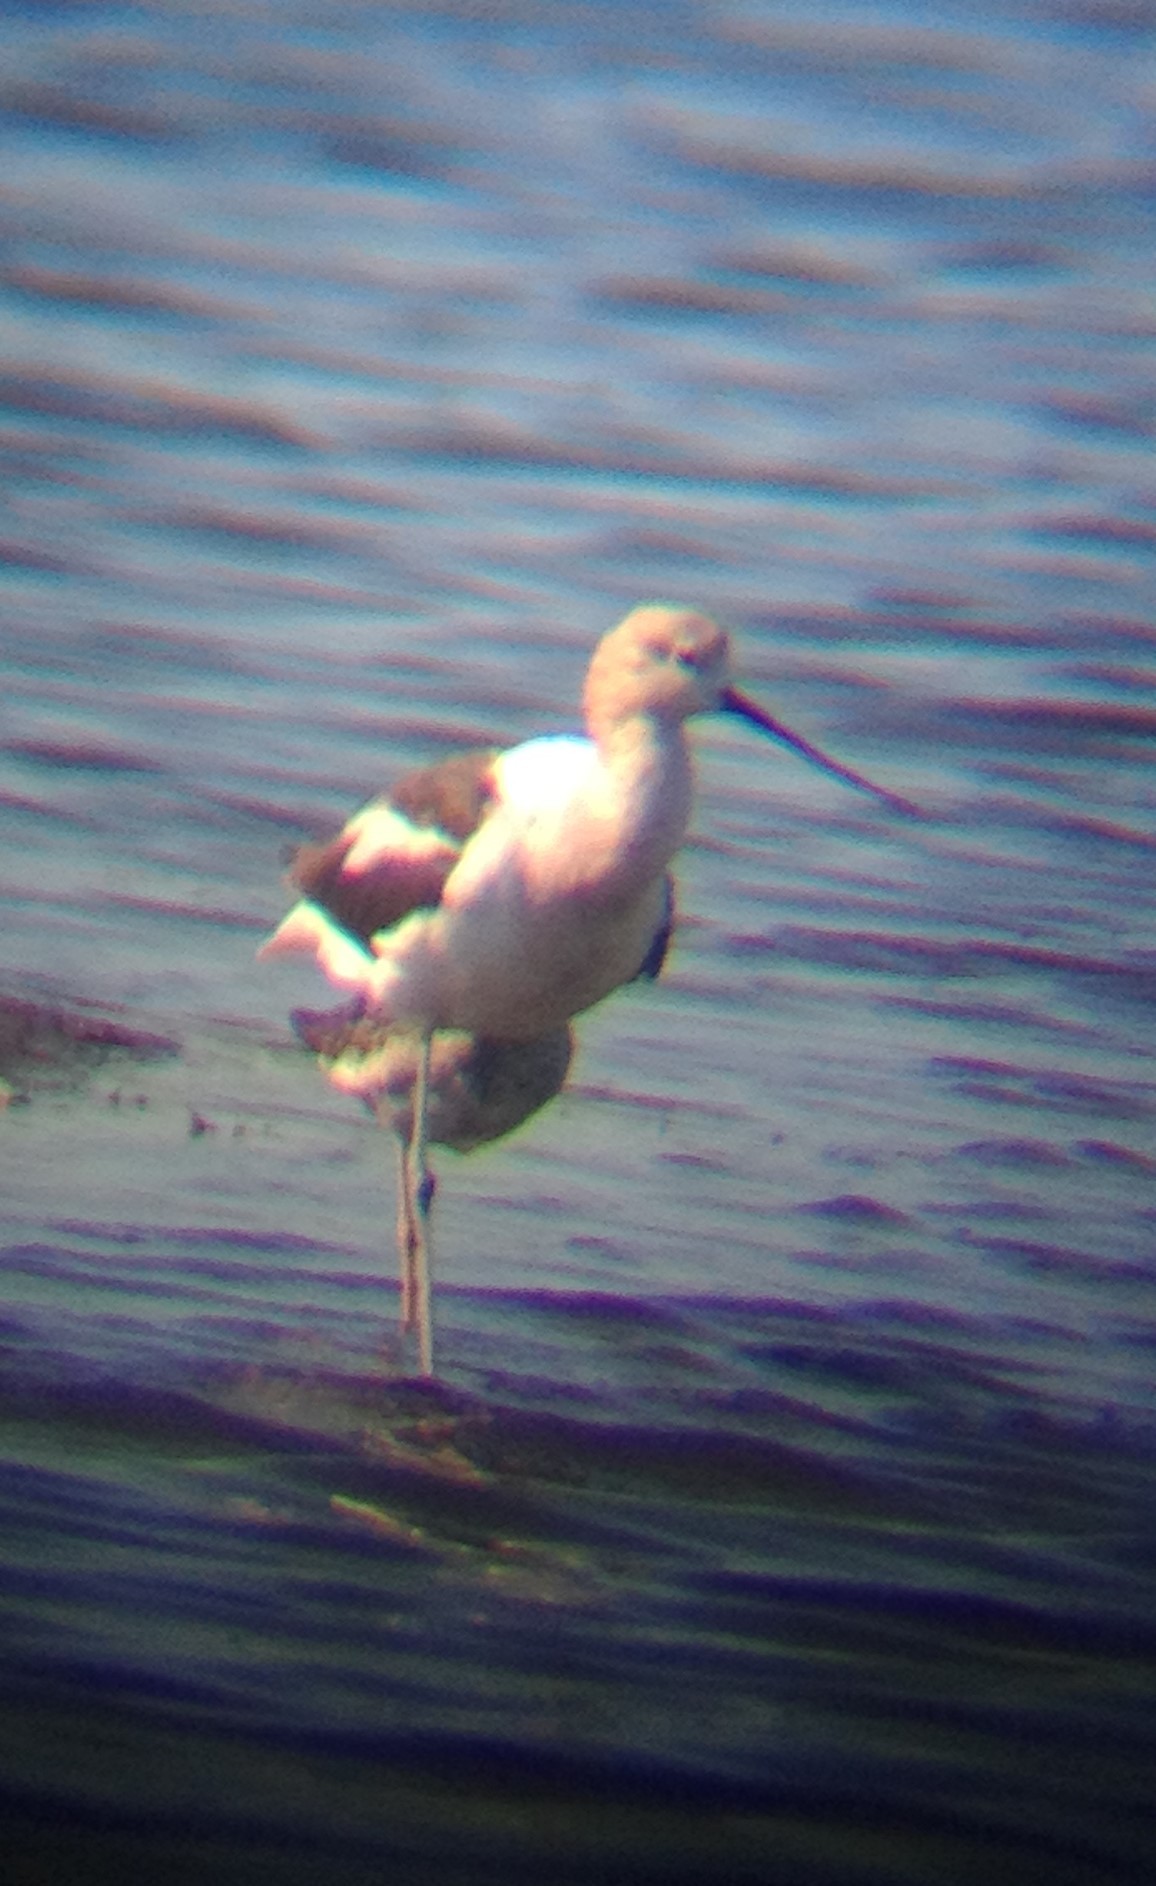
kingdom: Animalia
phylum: Chordata
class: Aves
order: Charadriiformes
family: Recurvirostridae
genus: Recurvirostra
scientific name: Recurvirostra americana
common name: American avocet
